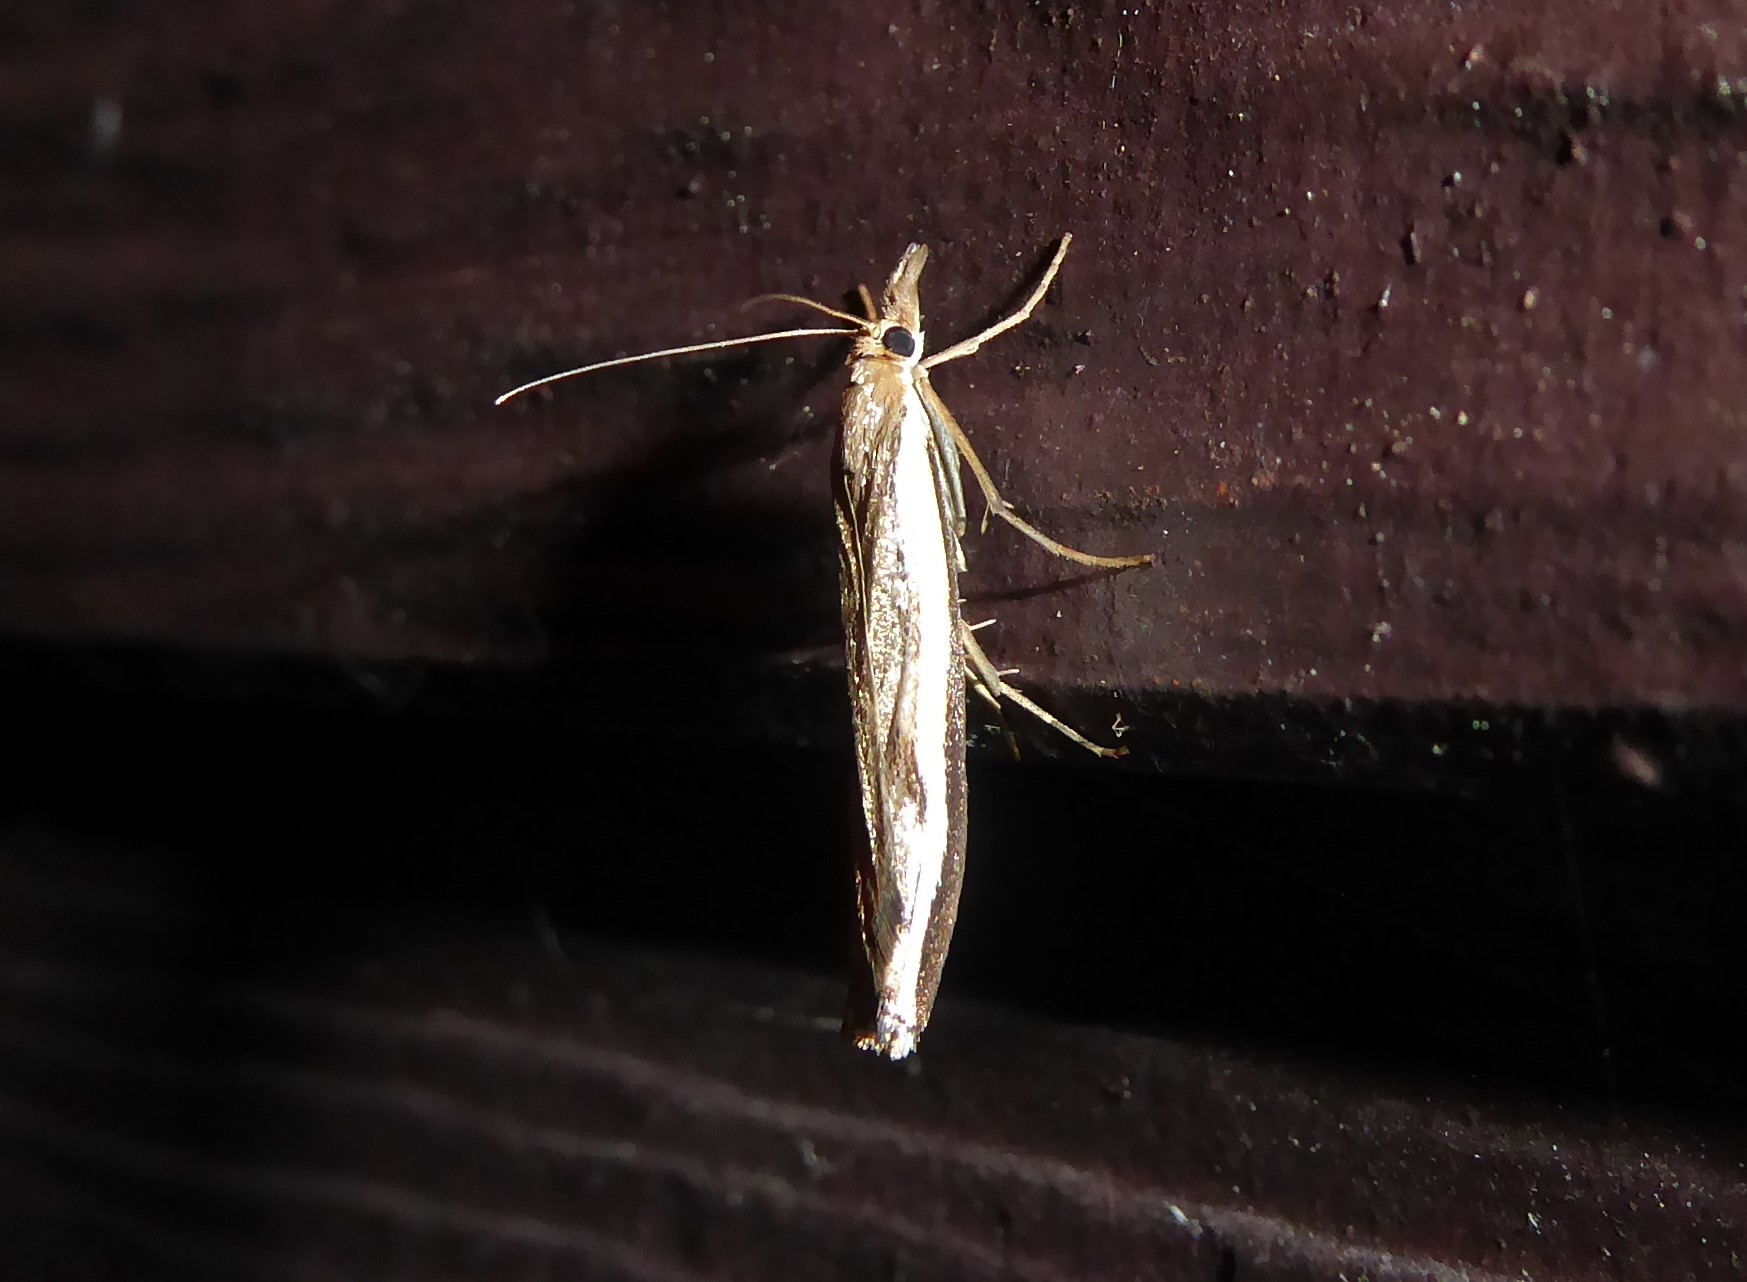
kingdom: Animalia
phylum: Arthropoda
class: Insecta
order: Lepidoptera
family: Crambidae
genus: Orocrambus
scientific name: Orocrambus flexuosellus
